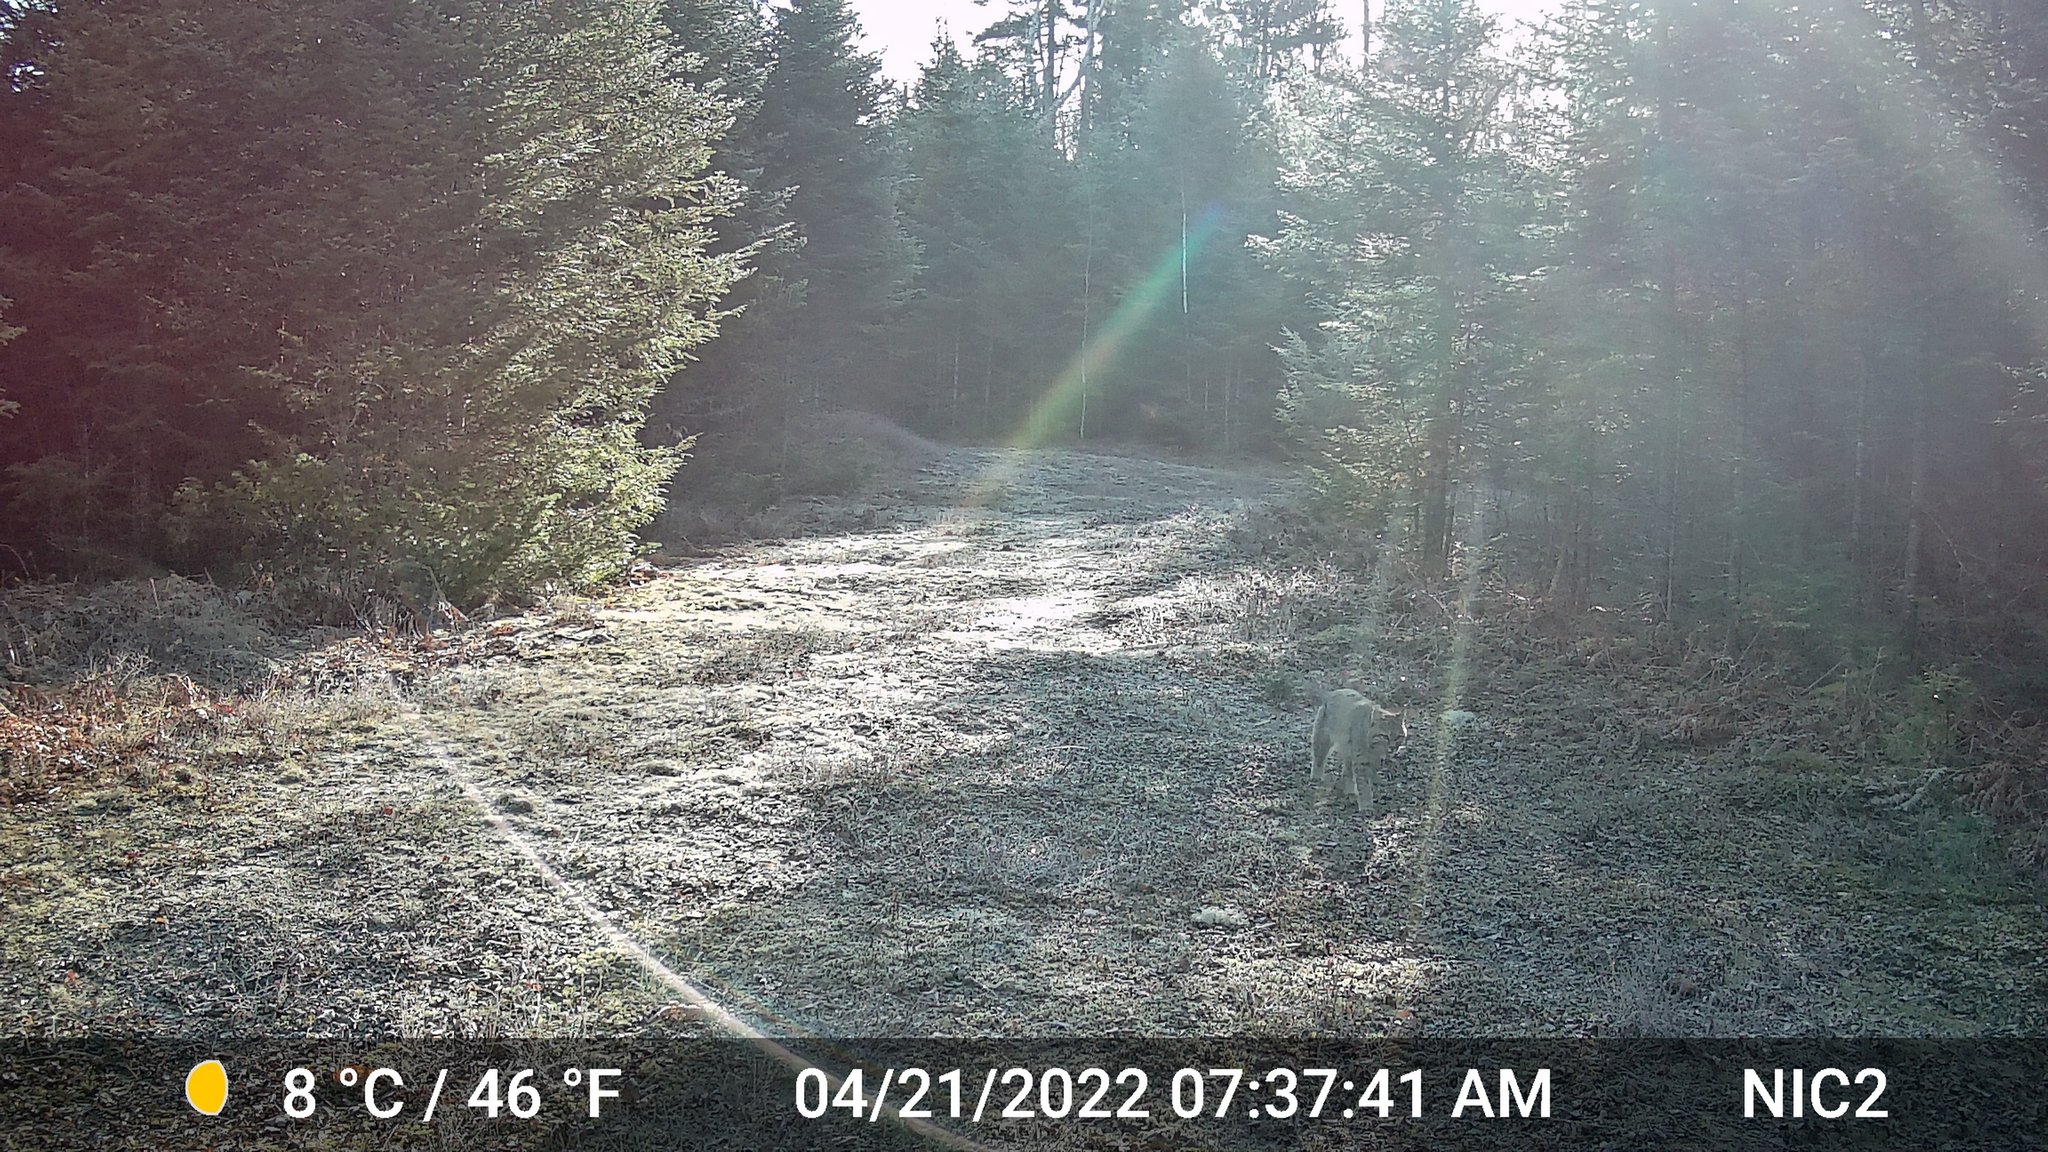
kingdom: Animalia
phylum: Chordata
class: Mammalia
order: Carnivora
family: Felidae
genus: Lynx
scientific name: Lynx rufus
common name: Bobcat
